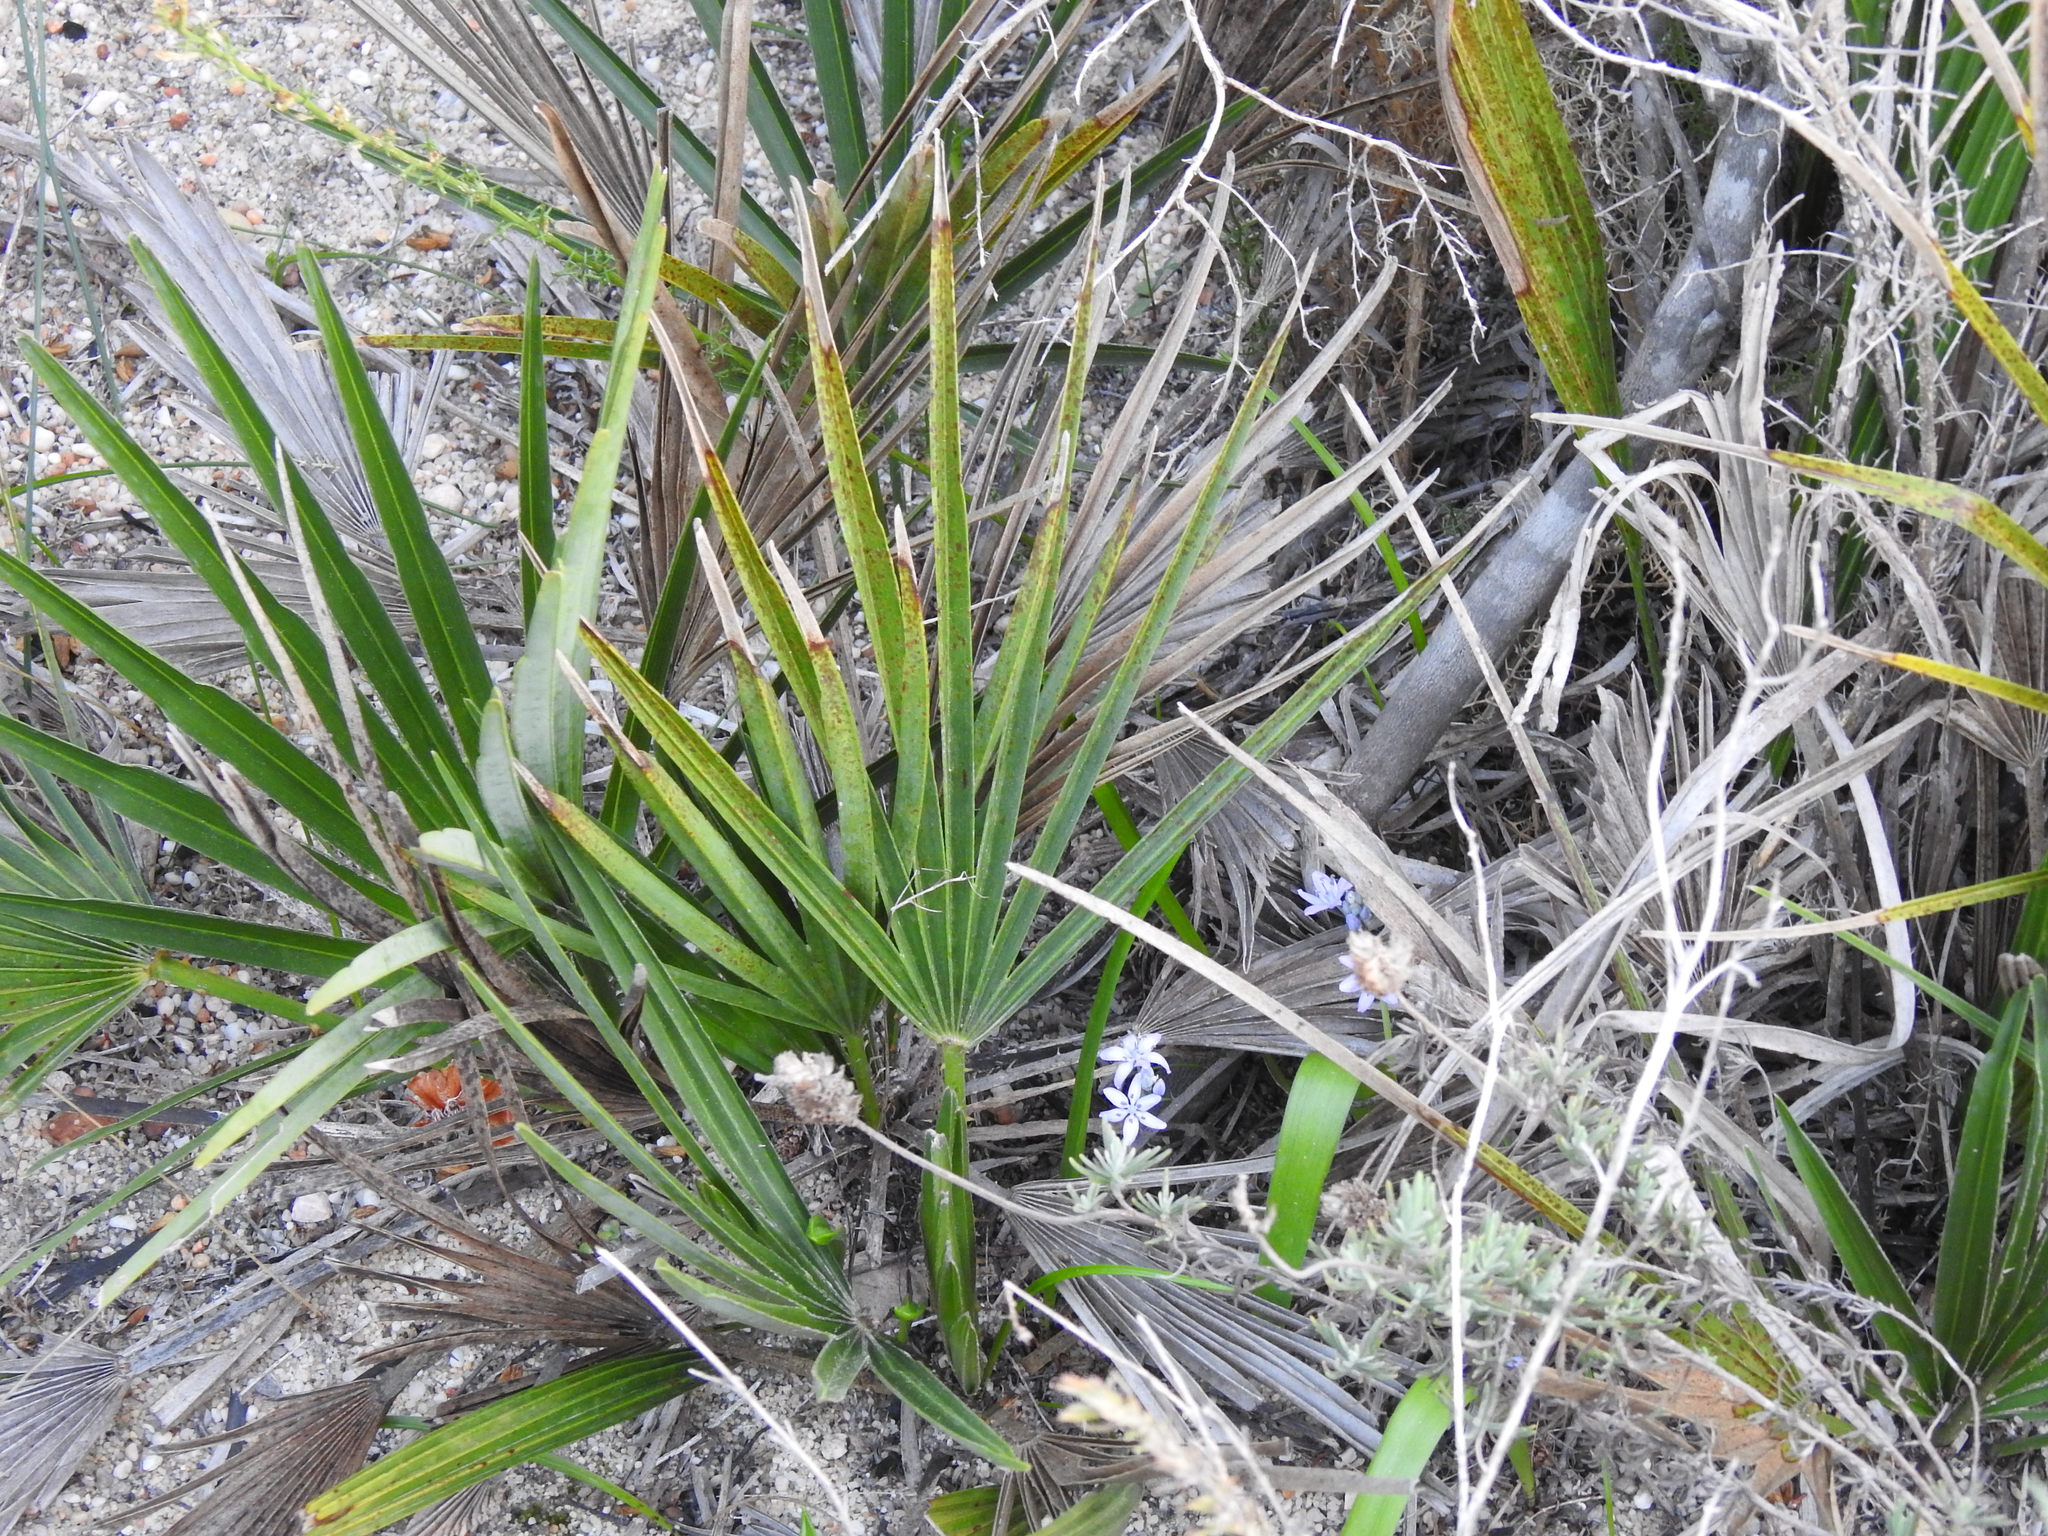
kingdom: Plantae
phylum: Tracheophyta
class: Liliopsida
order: Arecales
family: Arecaceae
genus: Chamaerops
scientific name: Chamaerops humilis
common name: Dwarf fan palm
